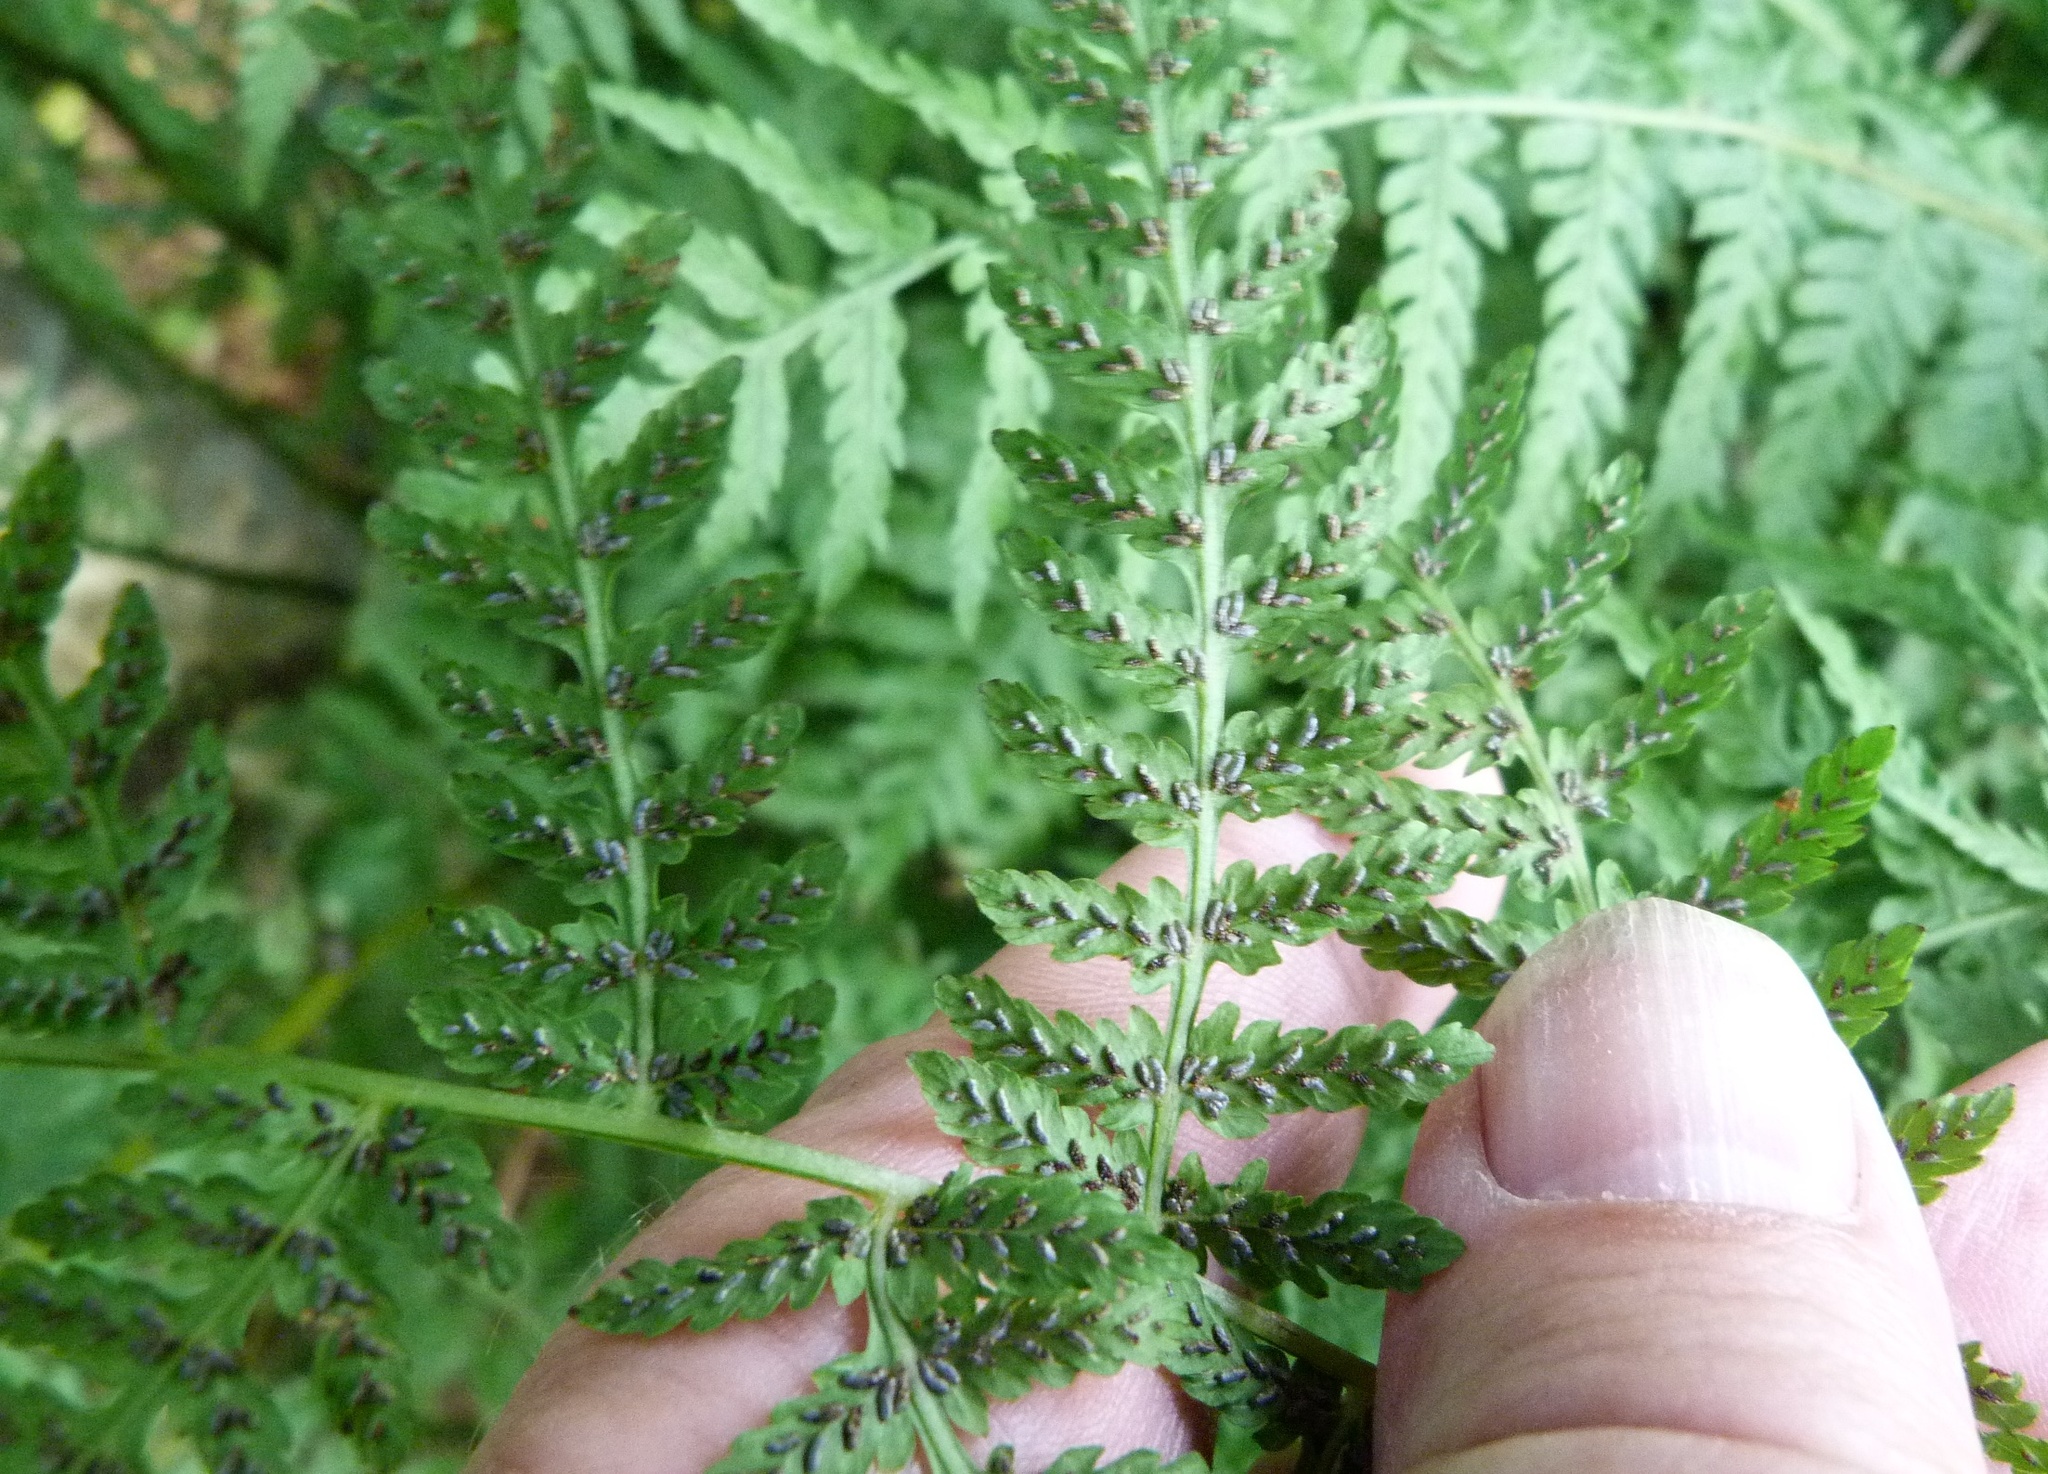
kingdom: Plantae
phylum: Tracheophyta
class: Polypodiopsida
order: Polypodiales
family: Athyriaceae
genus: Diplazium
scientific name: Diplazium australe
